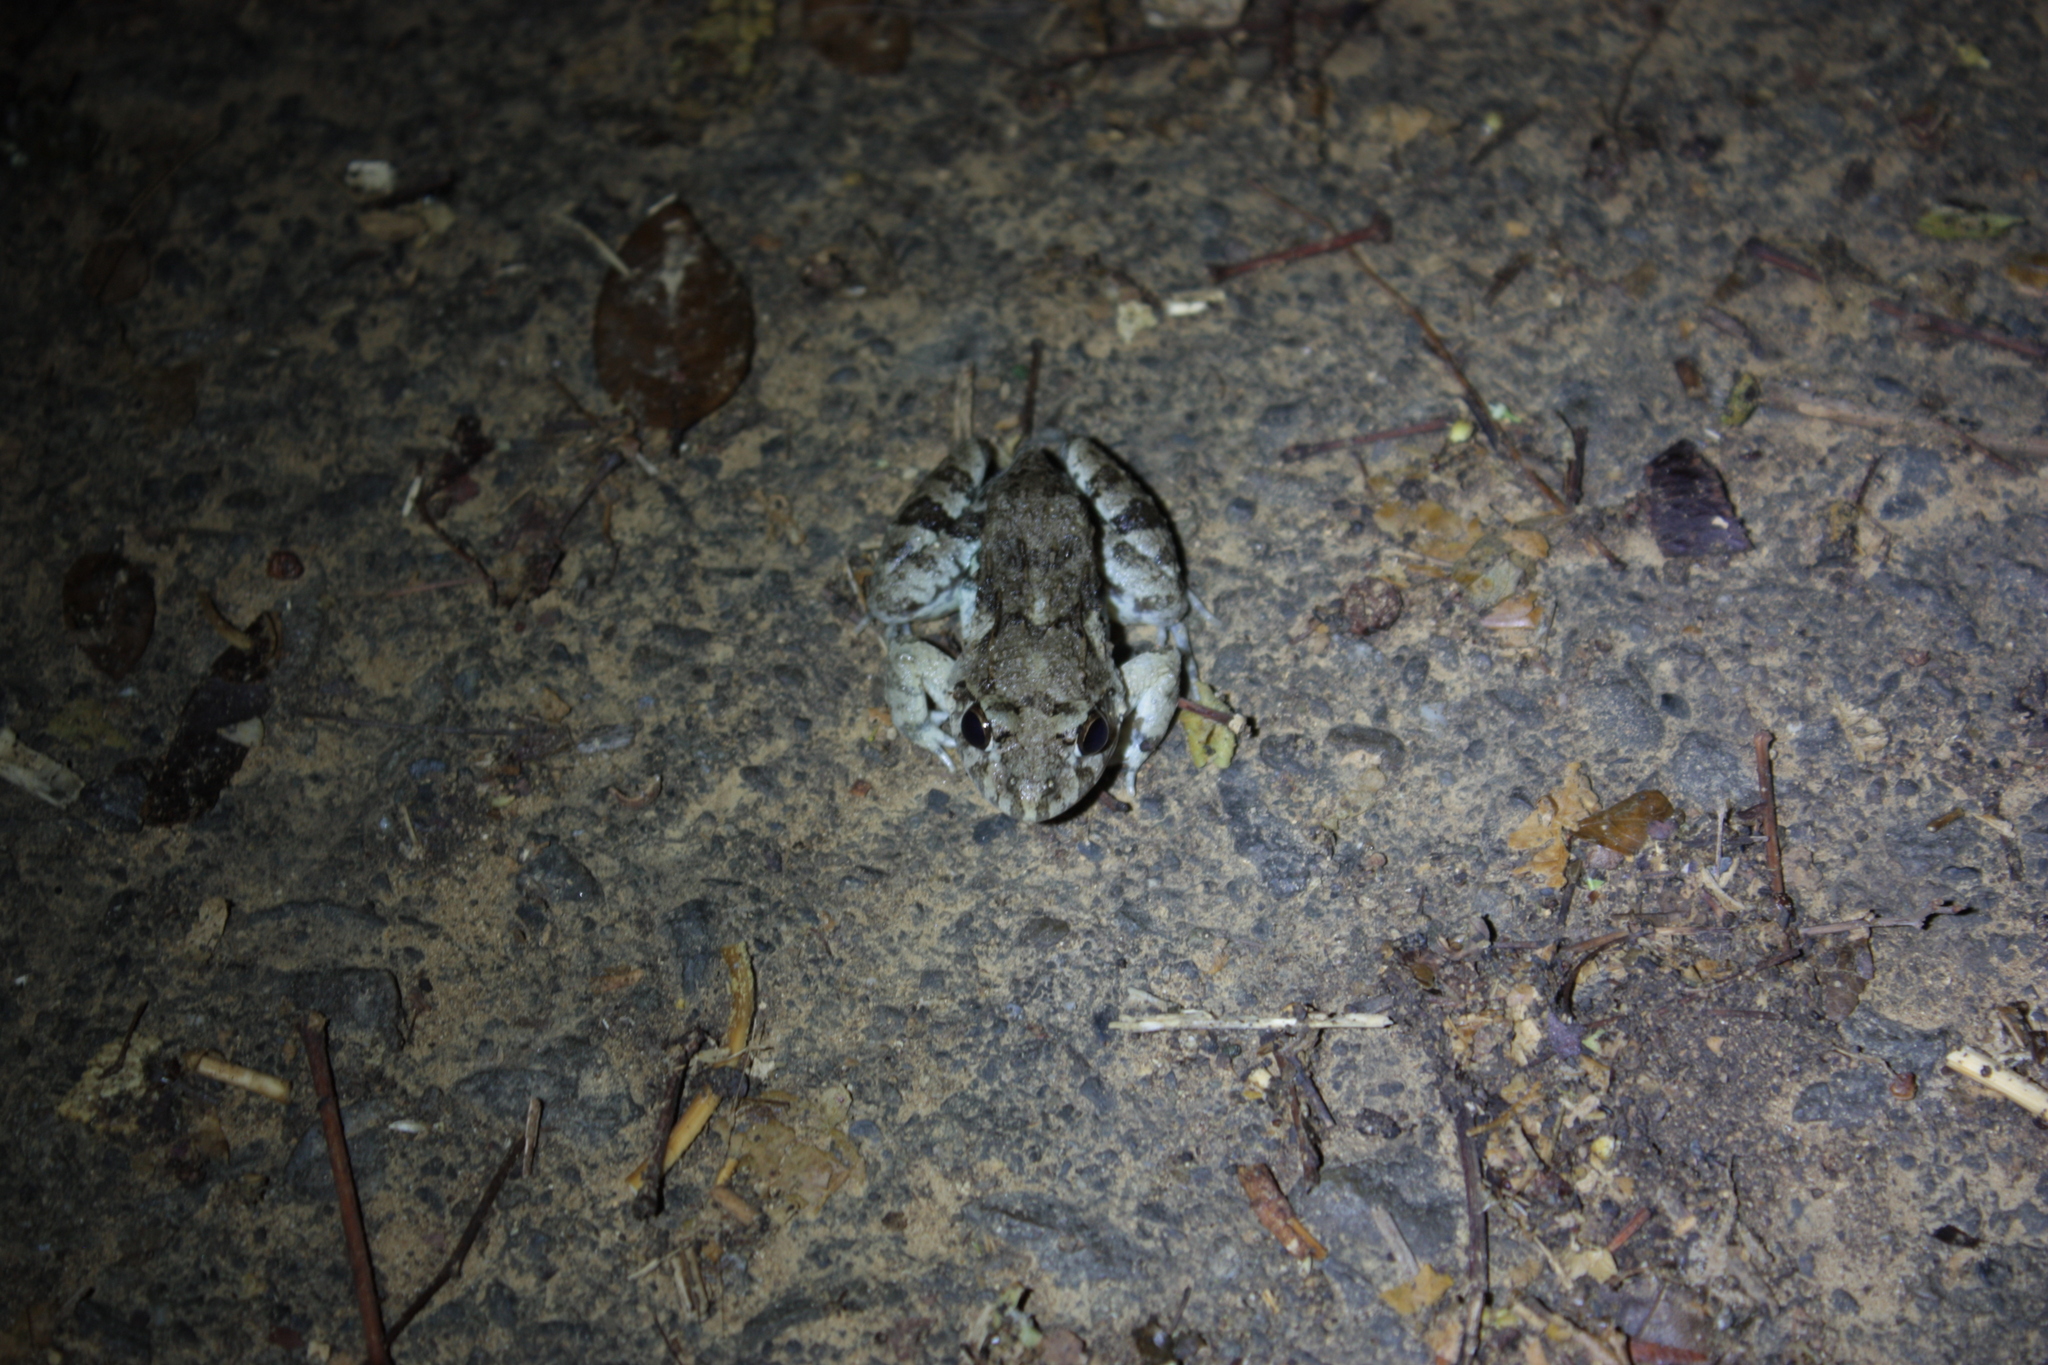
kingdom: Animalia
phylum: Chordata
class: Amphibia
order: Anura
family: Dicroglossidae
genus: Fejervarya
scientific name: Fejervarya limnocharis
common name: Asian grass frog/common pond frog/field frog/grass frog/indian rice frog
